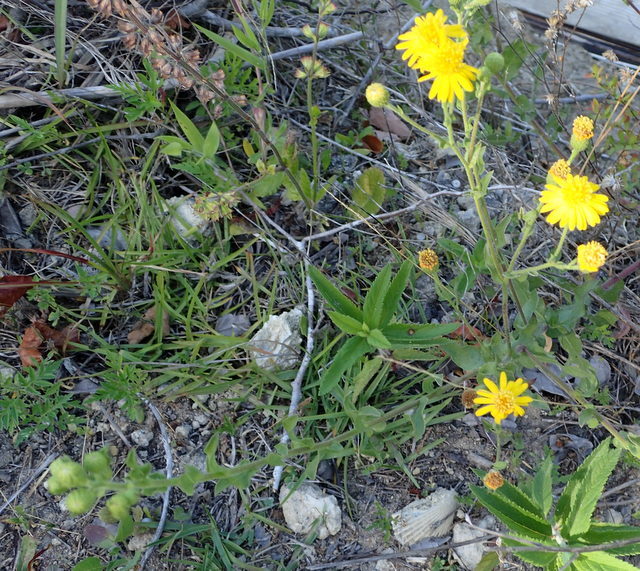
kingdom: Plantae
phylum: Tracheophyta
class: Magnoliopsida
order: Asterales
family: Asteraceae
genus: Heterotheca
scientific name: Heterotheca subaxillaris
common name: Camphorweed
